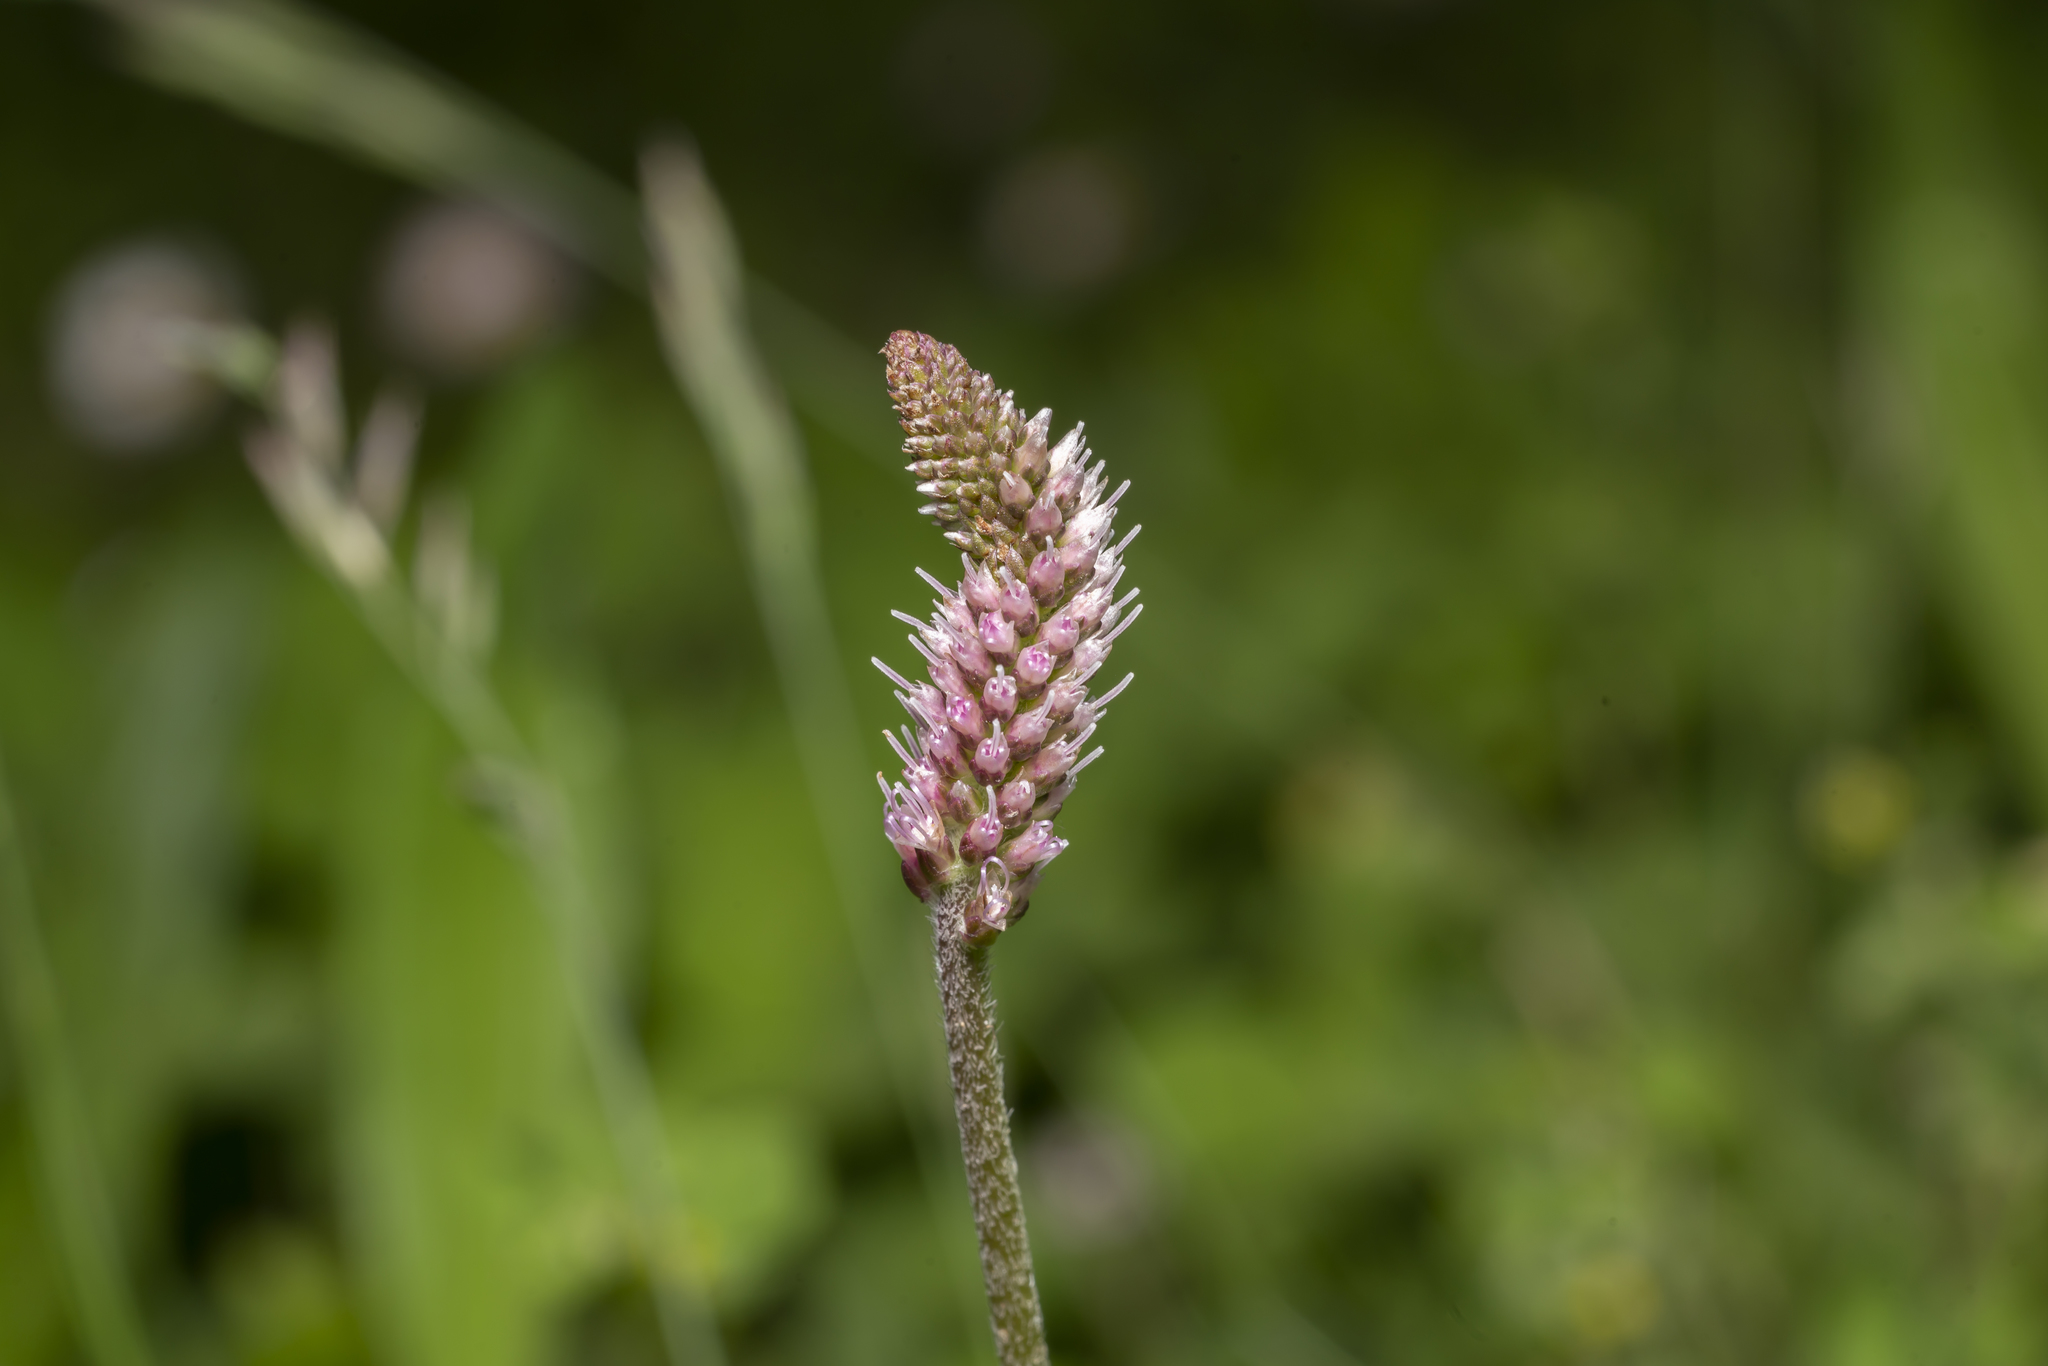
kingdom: Plantae
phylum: Tracheophyta
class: Magnoliopsida
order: Lamiales
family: Plantaginaceae
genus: Plantago
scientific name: Plantago media
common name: Hoary plantain
